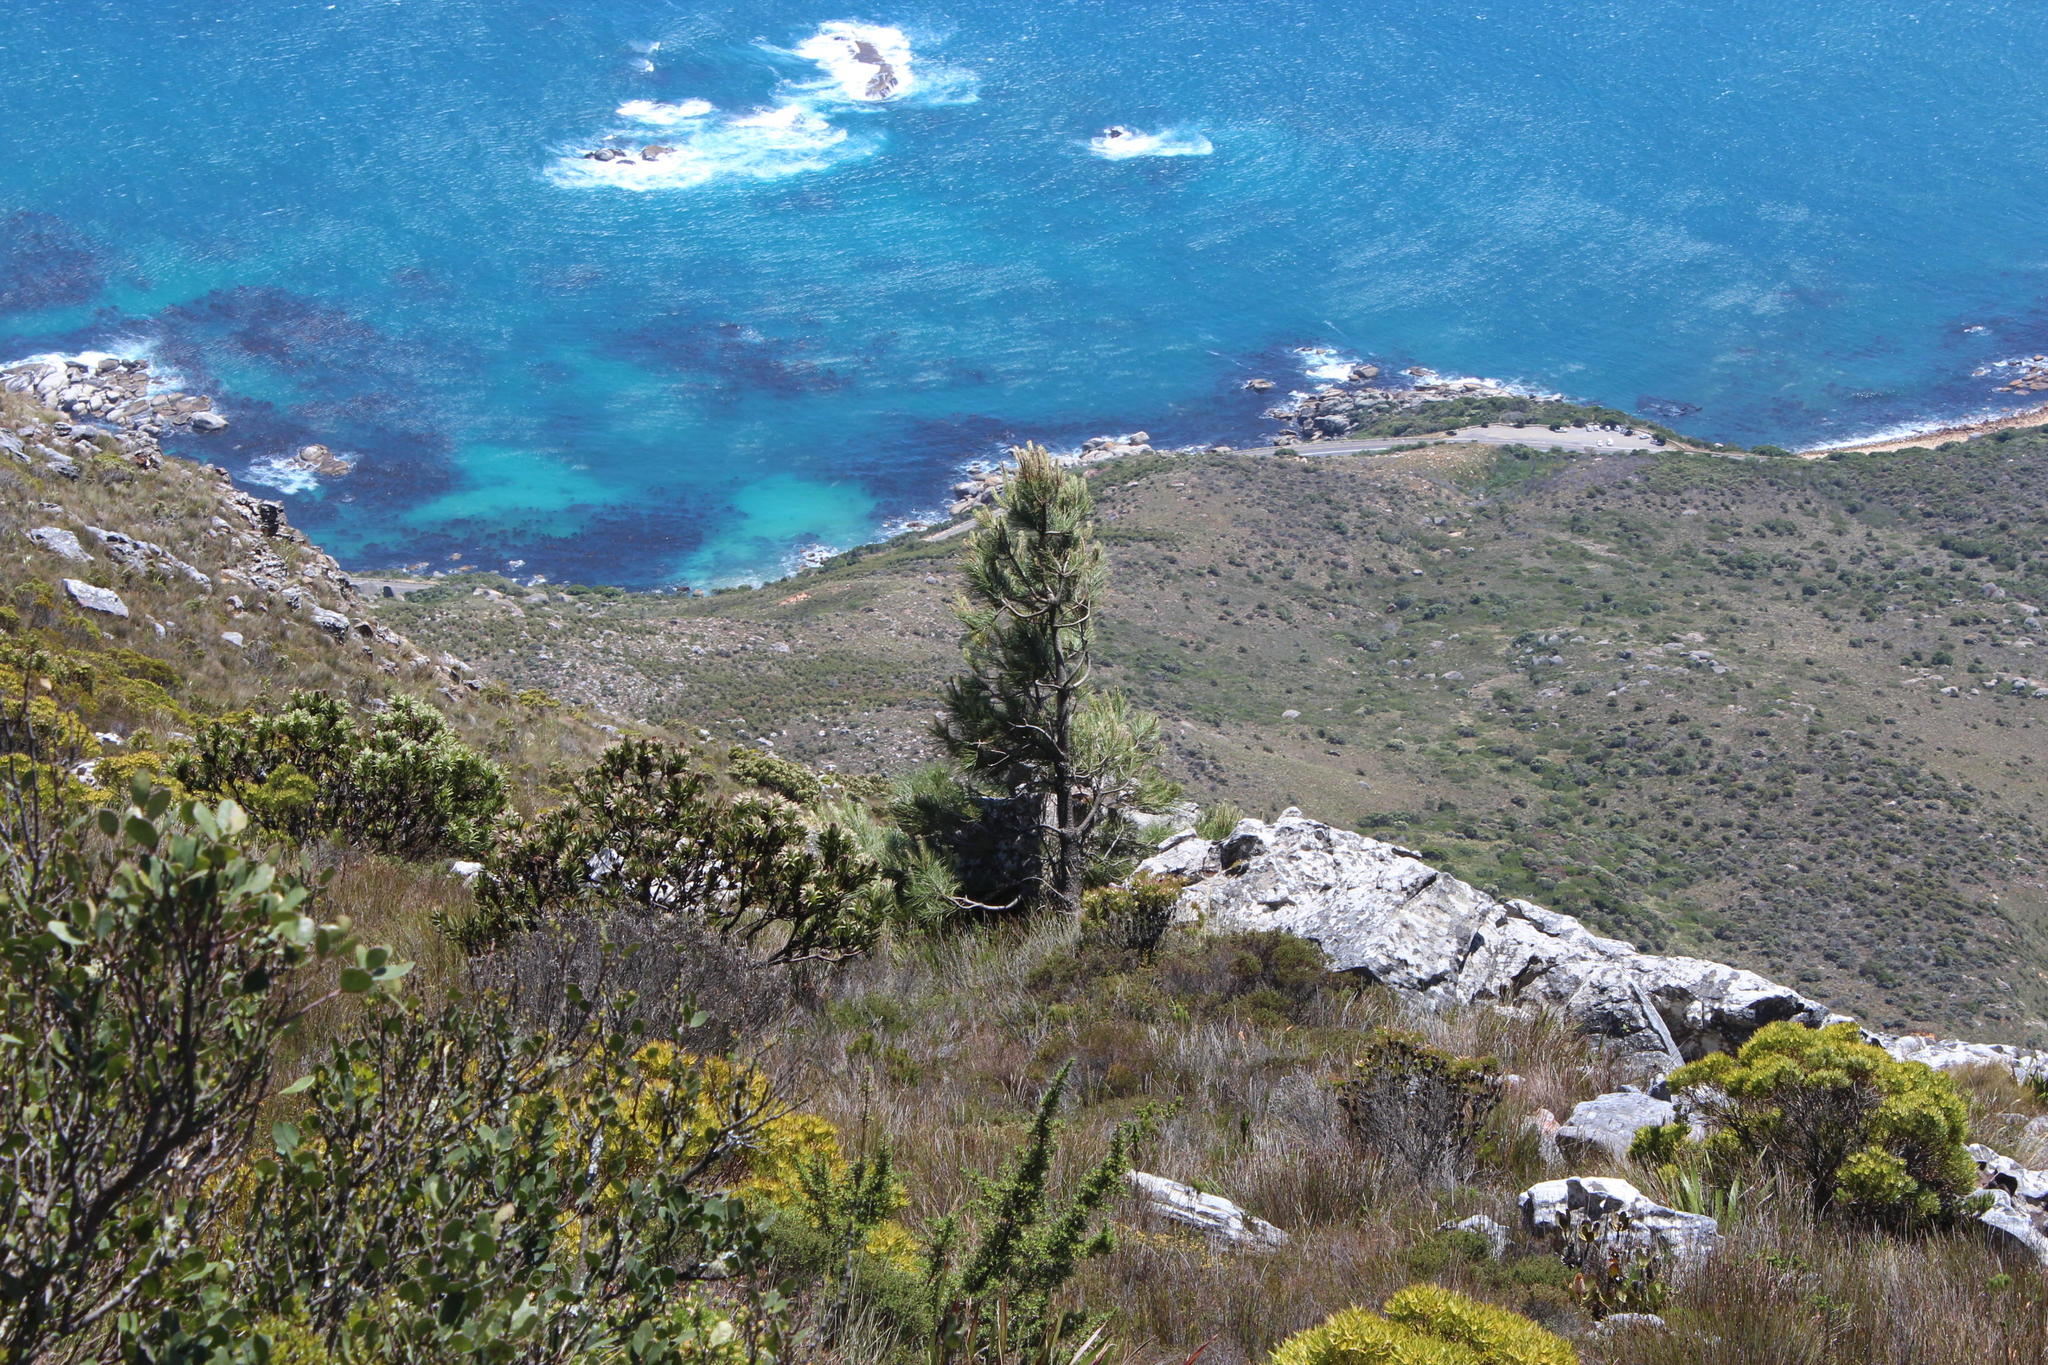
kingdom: Plantae
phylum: Tracheophyta
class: Pinopsida
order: Pinales
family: Pinaceae
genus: Pinus
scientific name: Pinus radiata
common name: Monterey pine
